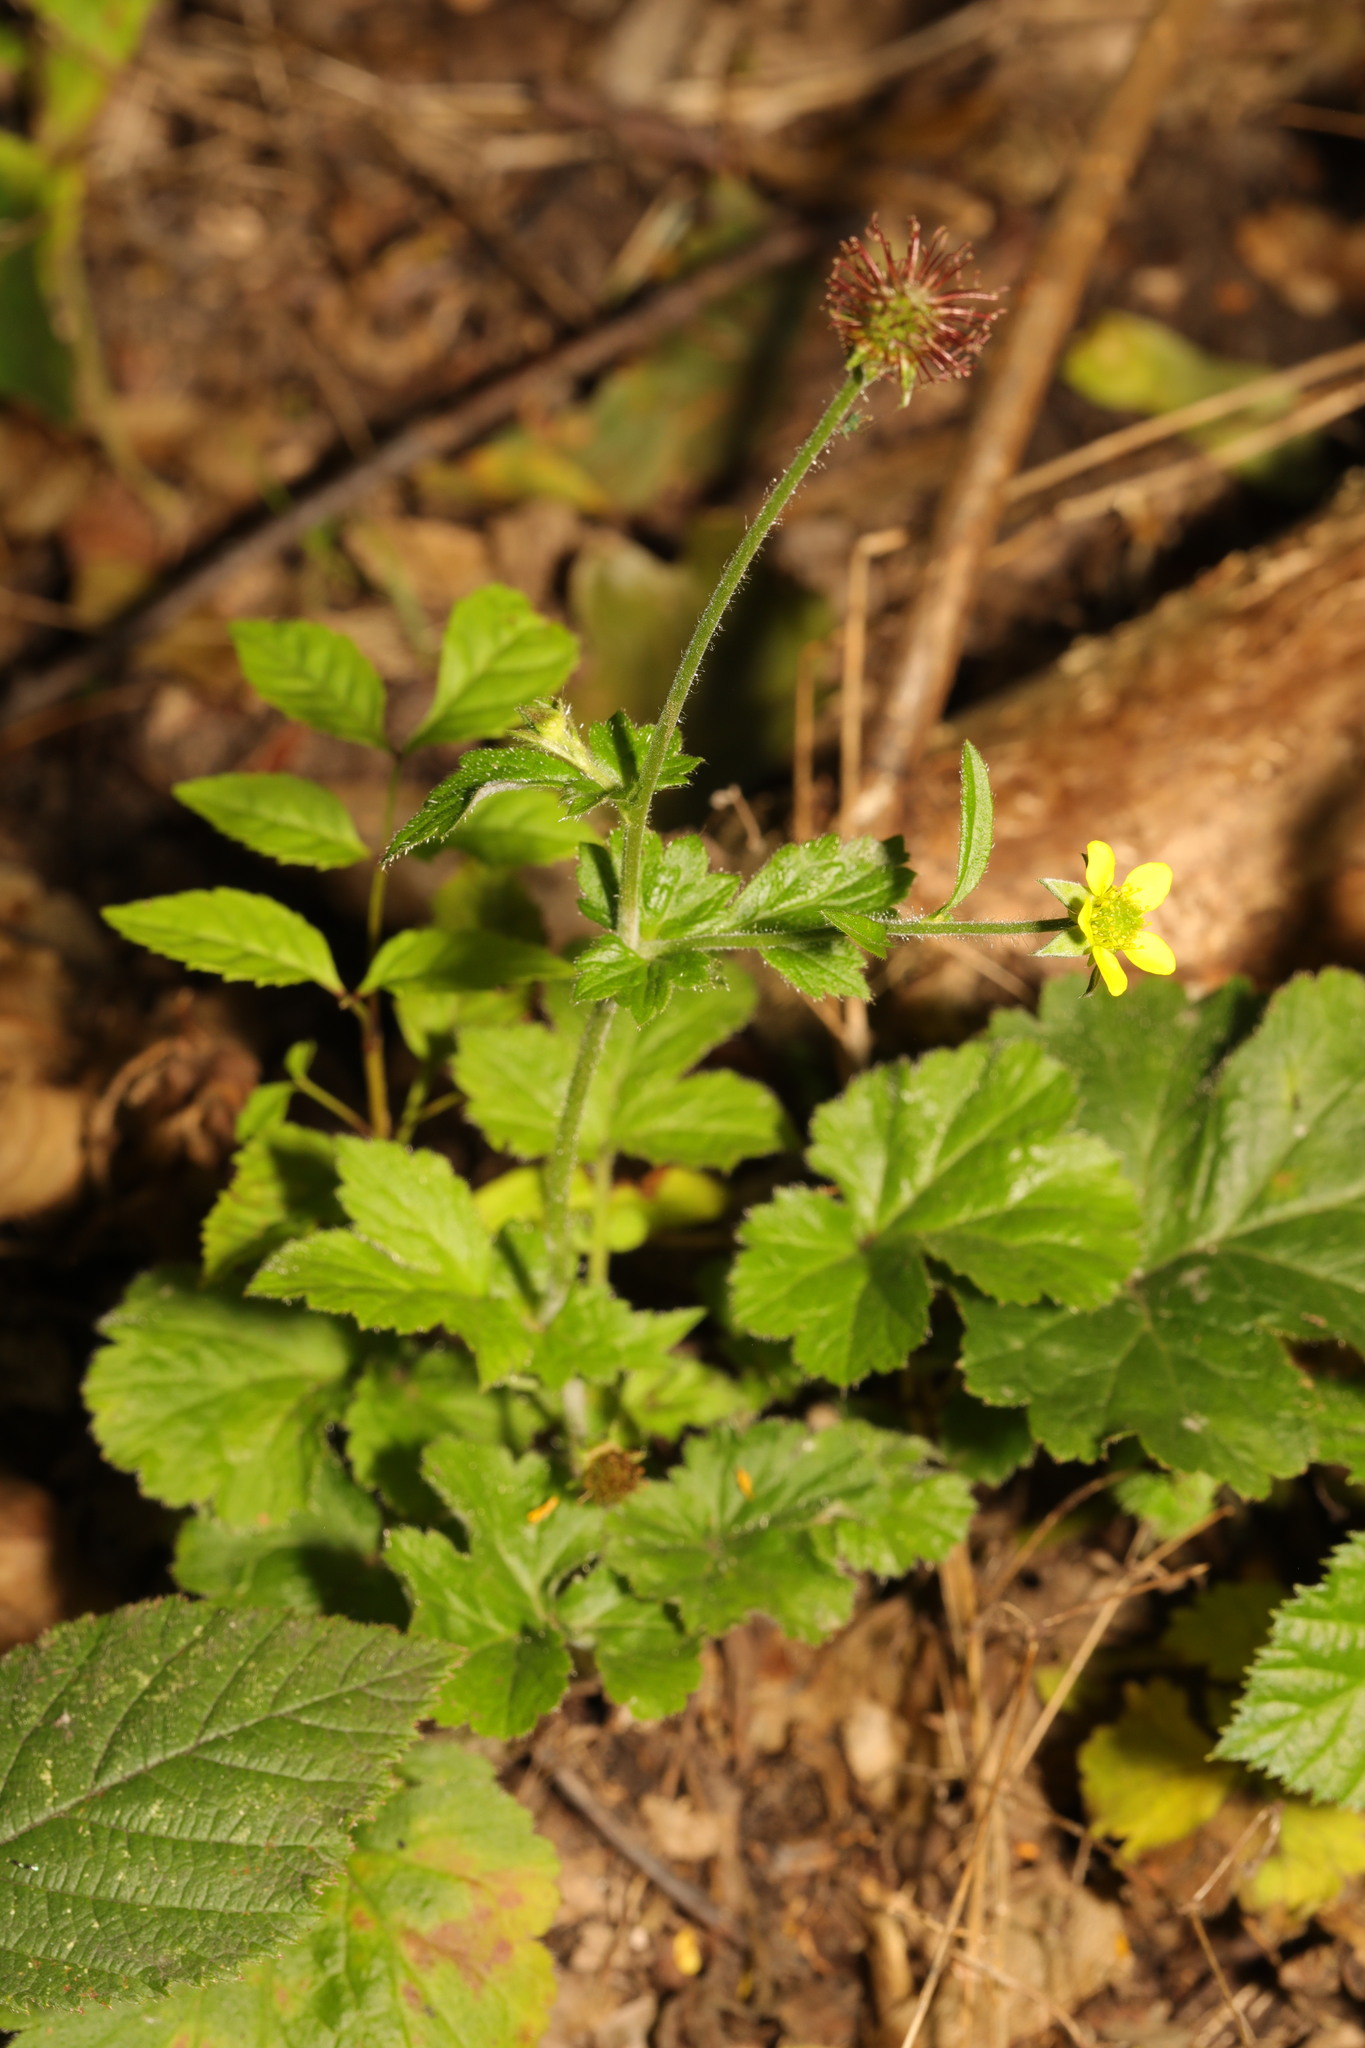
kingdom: Plantae
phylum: Tracheophyta
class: Magnoliopsida
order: Rosales
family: Rosaceae
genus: Geum
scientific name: Geum urbanum
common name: Wood avens
